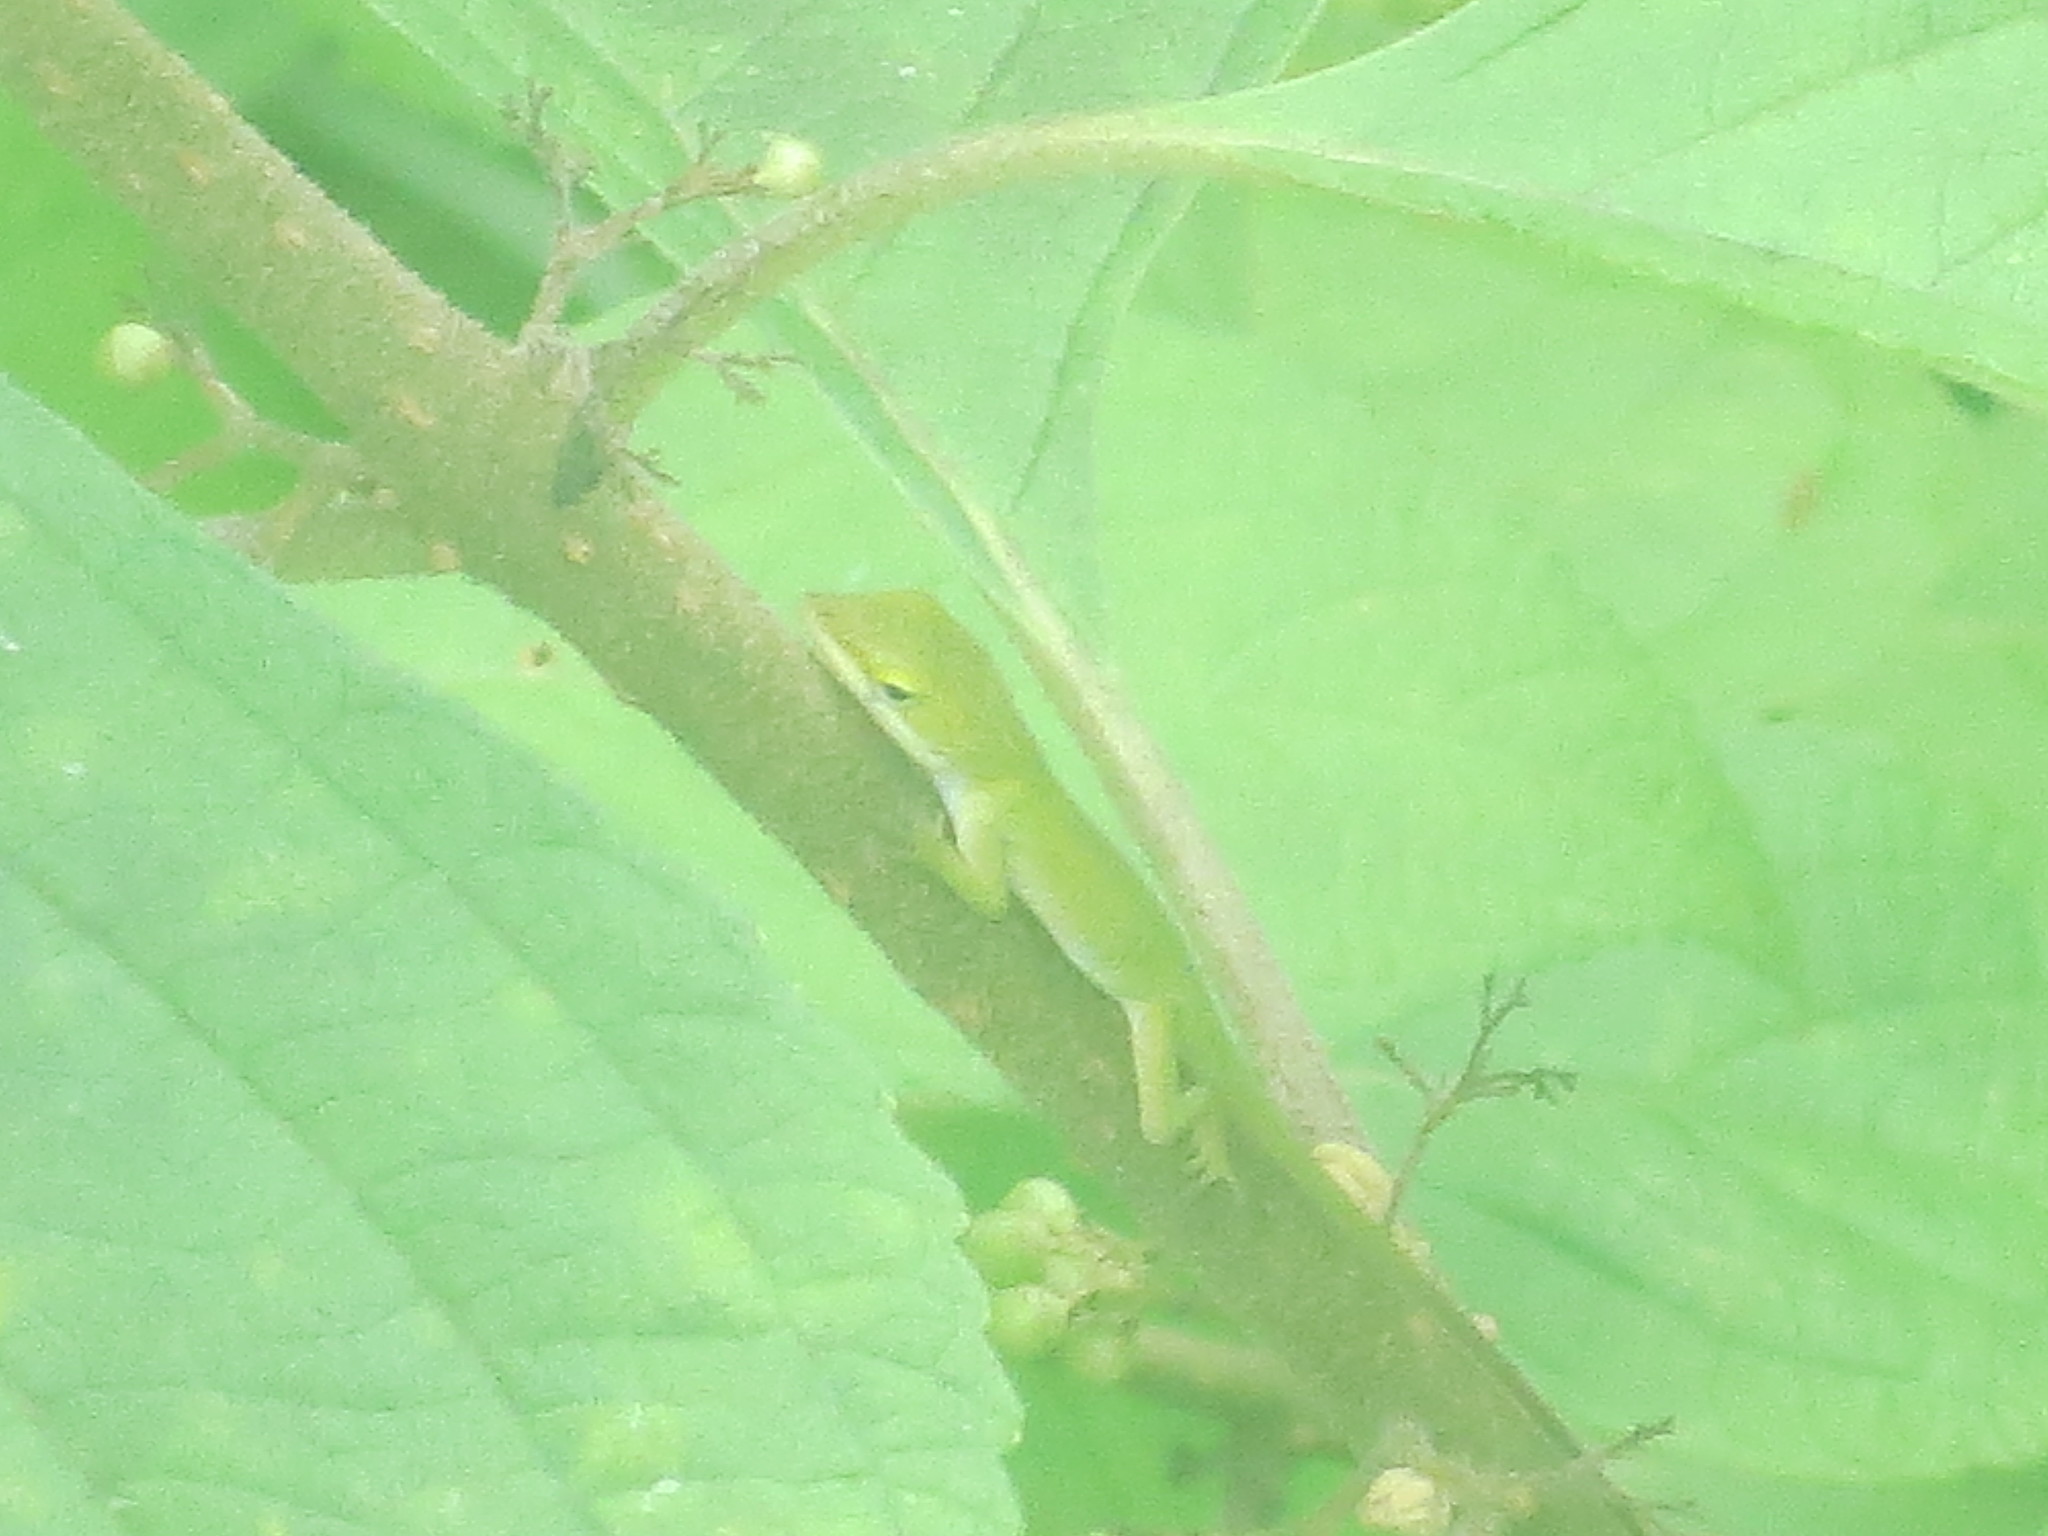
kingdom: Animalia
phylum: Chordata
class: Squamata
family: Dactyloidae
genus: Anolis
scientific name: Anolis carolinensis
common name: Green anole
